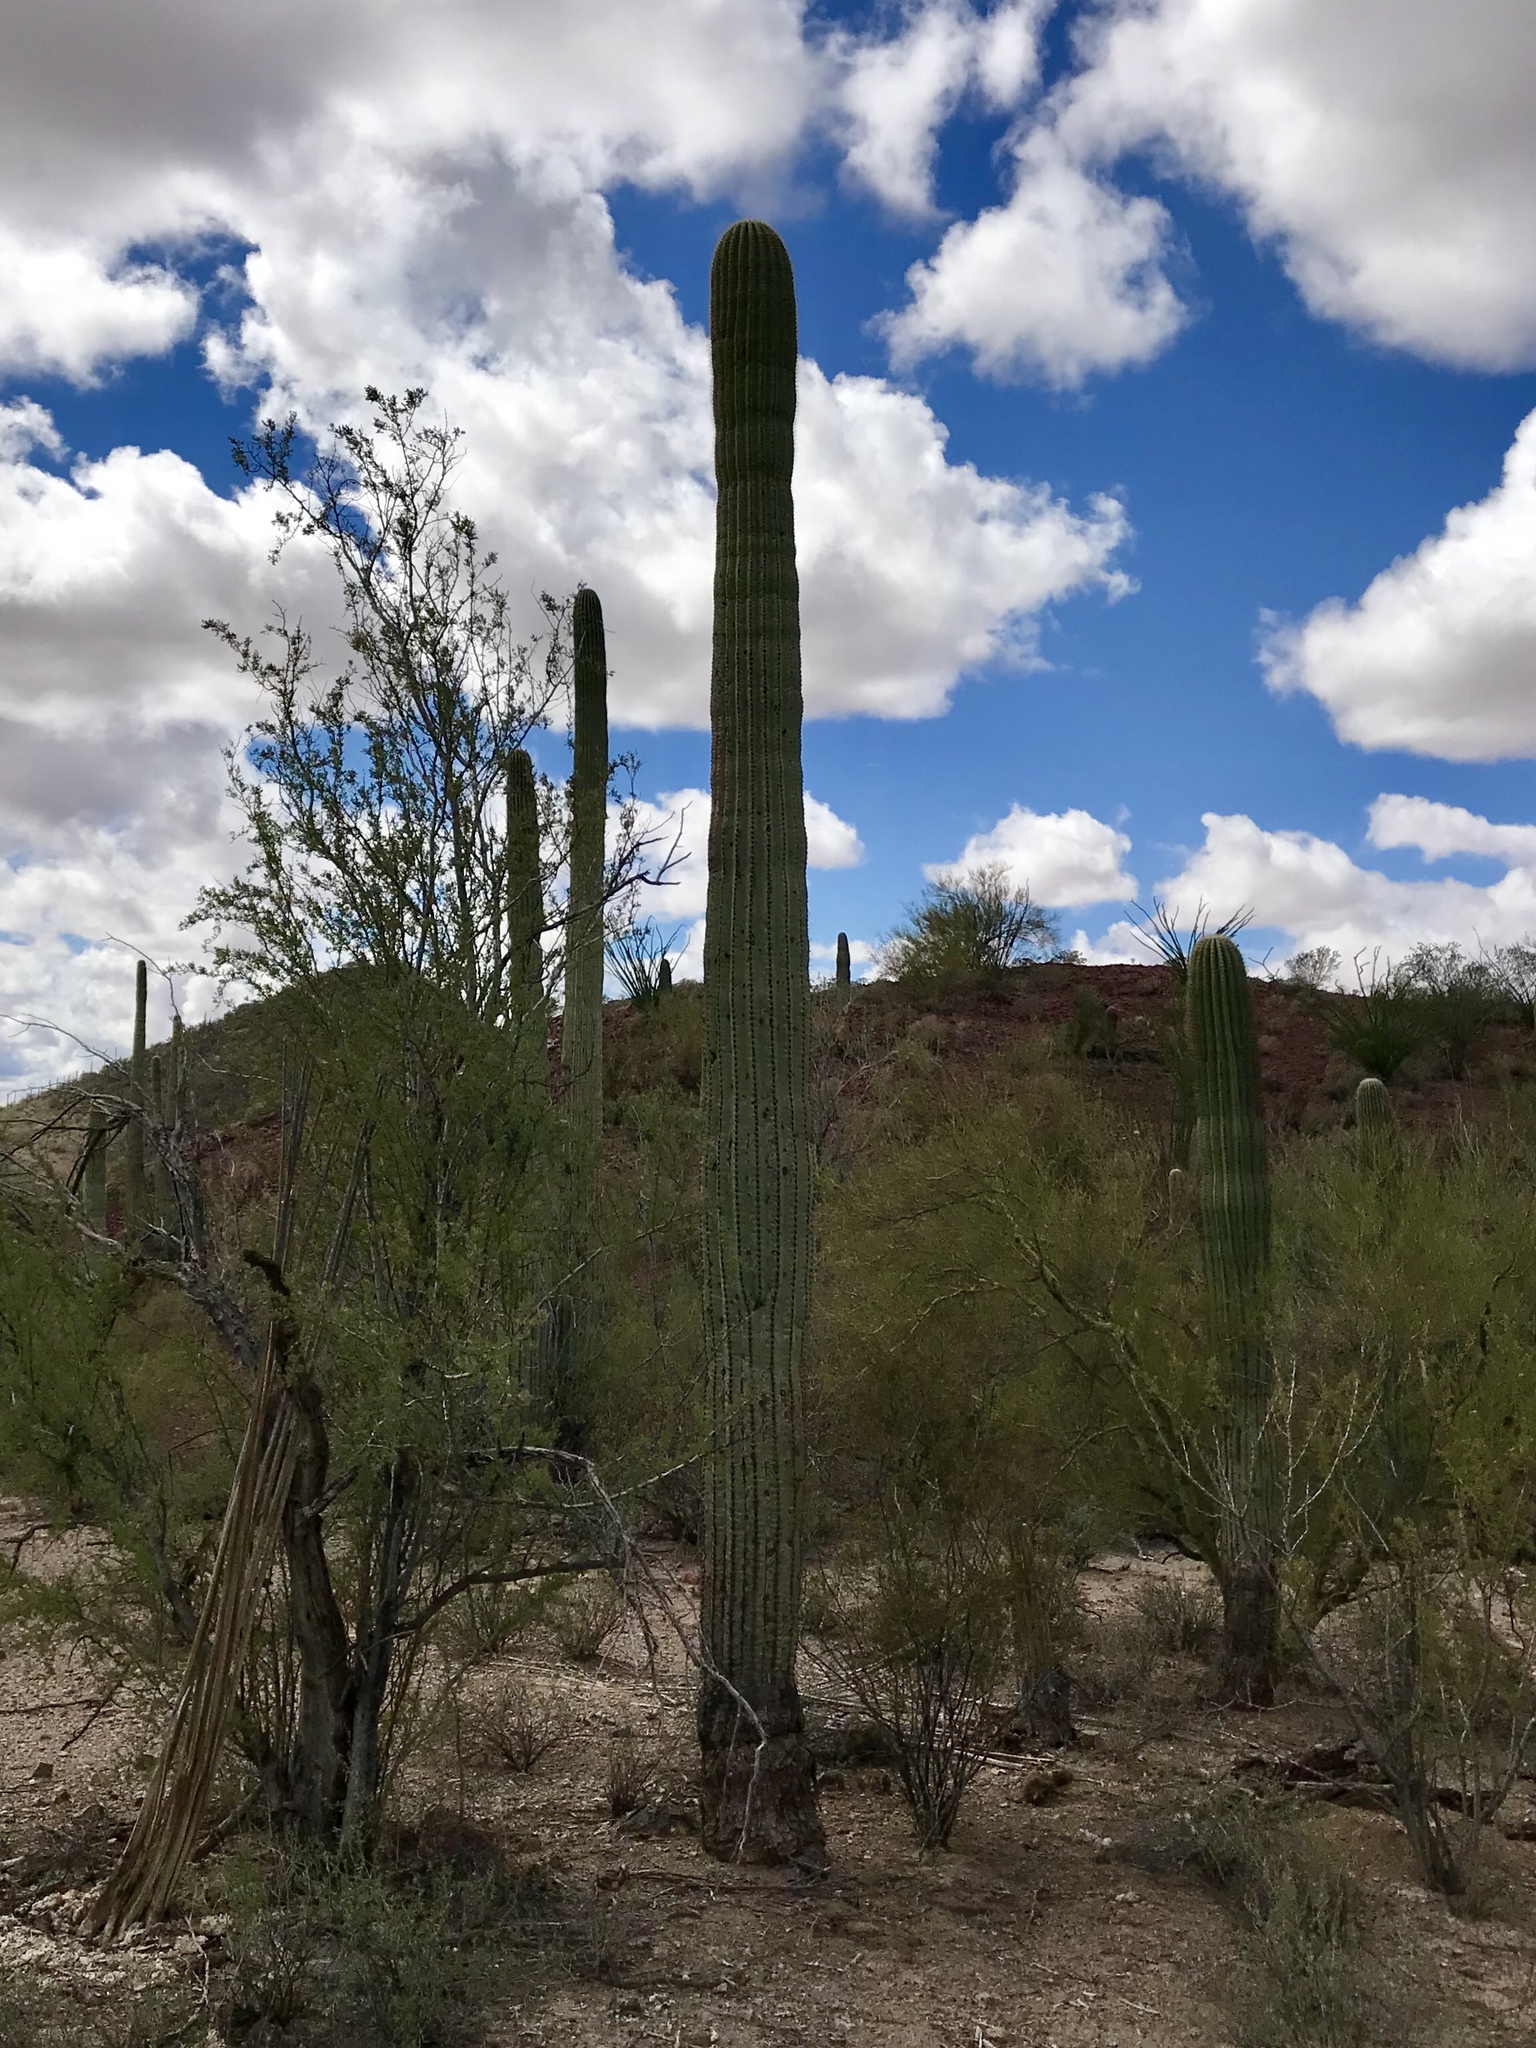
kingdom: Plantae
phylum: Tracheophyta
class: Magnoliopsida
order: Caryophyllales
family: Cactaceae
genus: Carnegiea
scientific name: Carnegiea gigantea
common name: Saguaro
